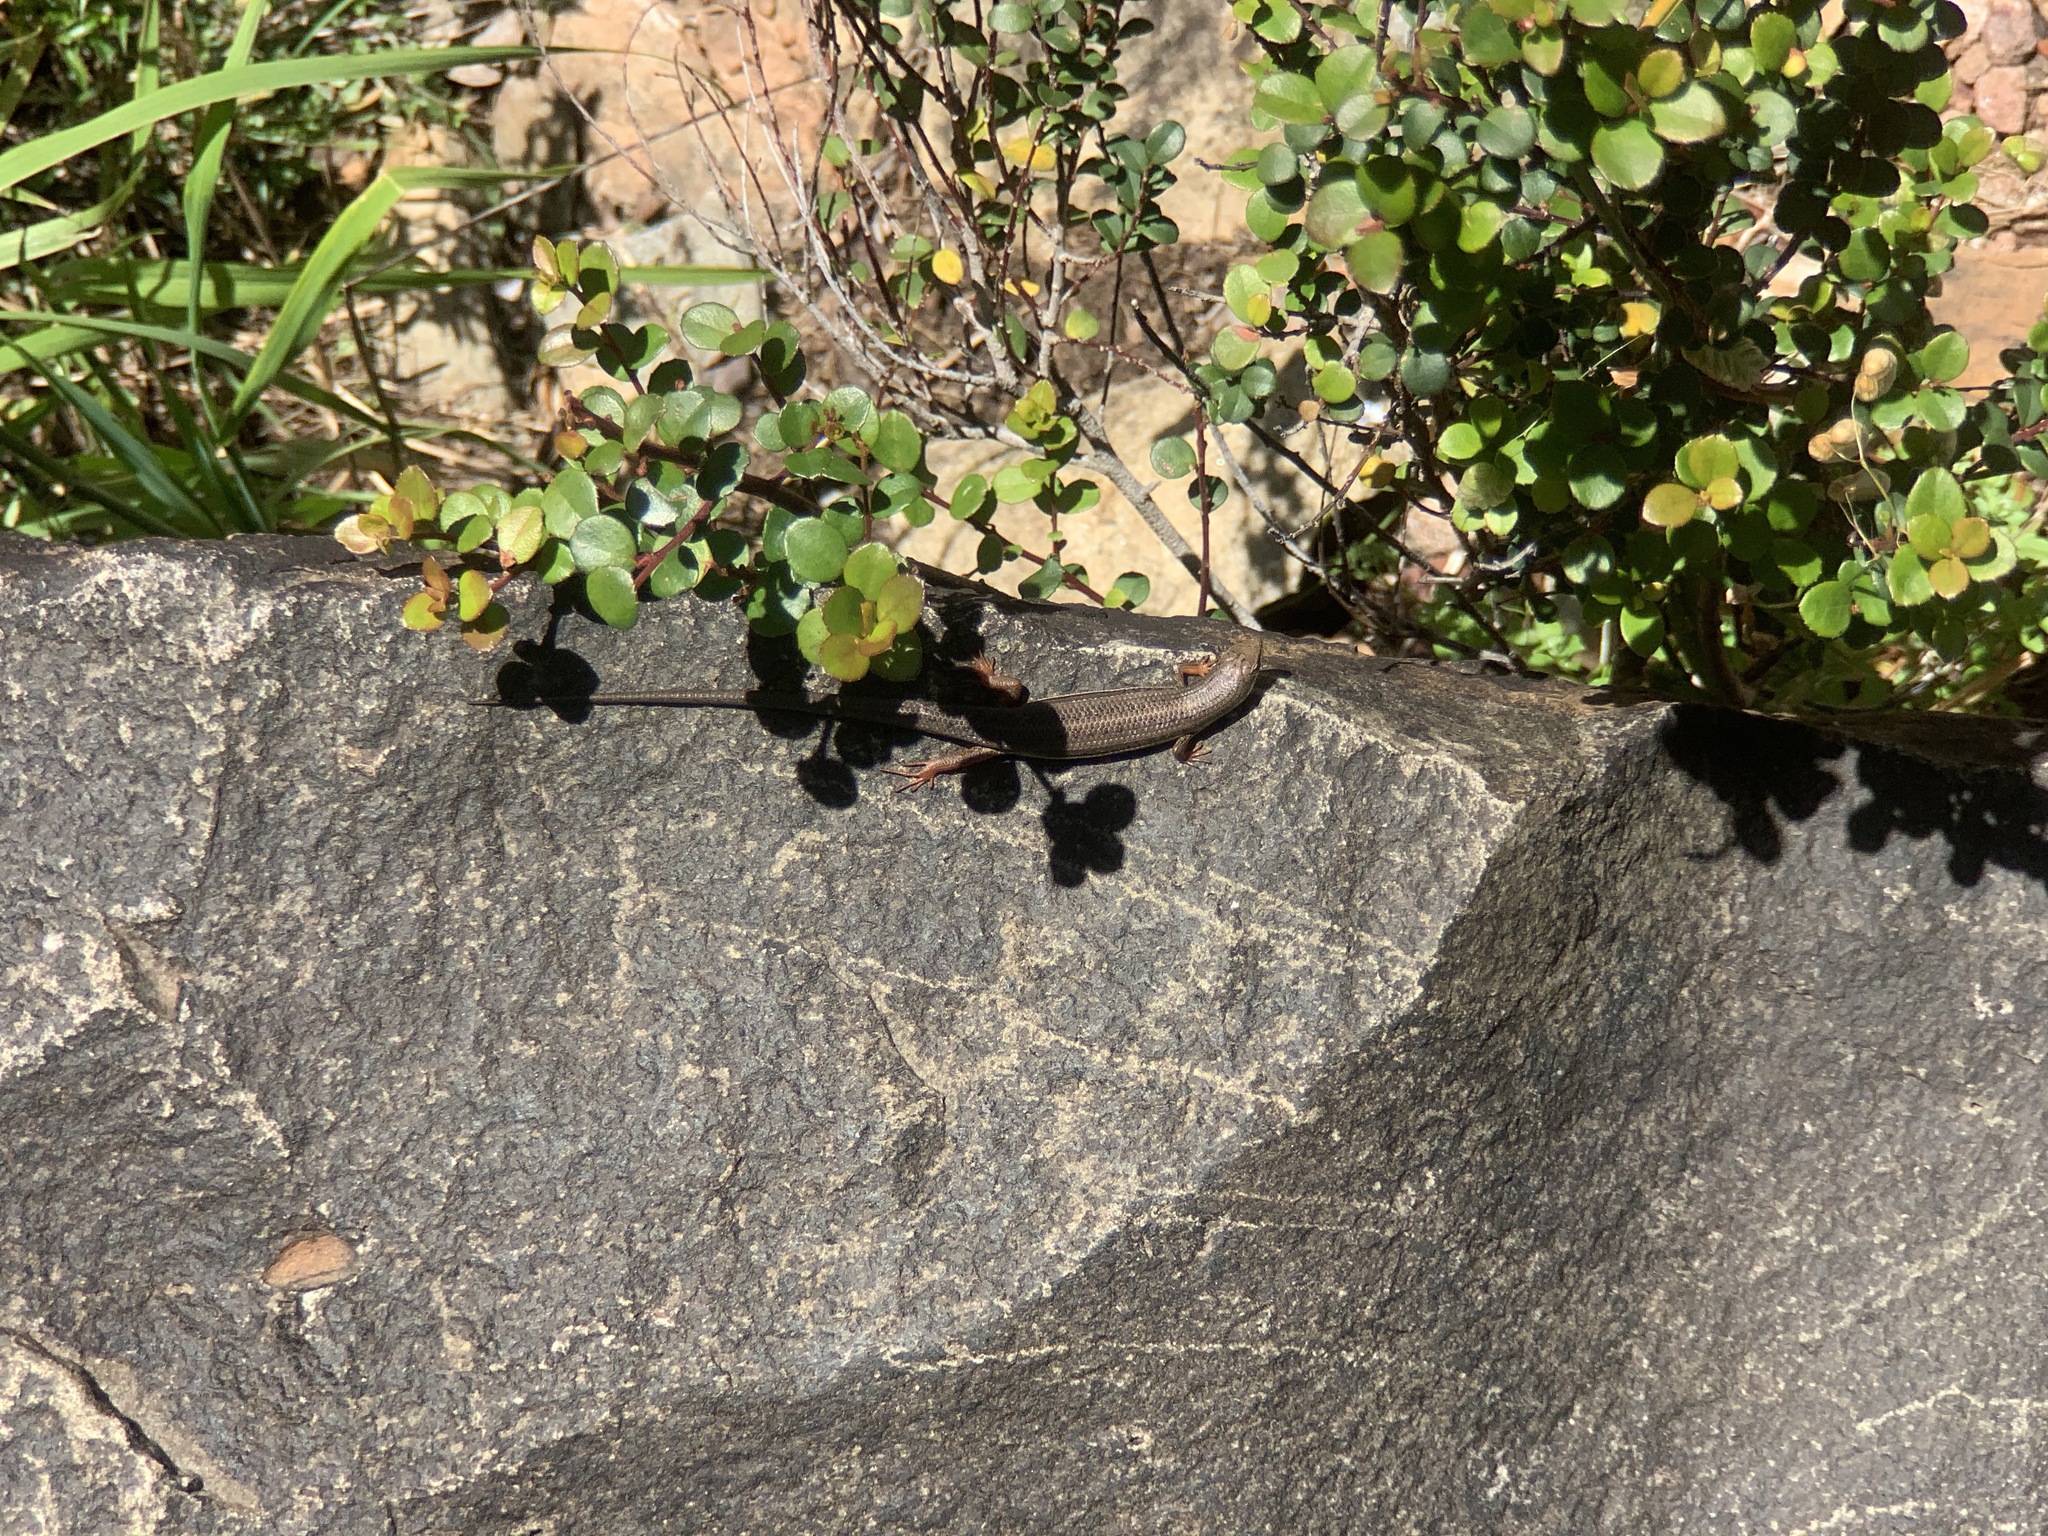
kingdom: Animalia
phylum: Chordata
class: Squamata
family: Scincidae
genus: Trachylepis
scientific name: Trachylepis homalocephala
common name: Red-sided skink
